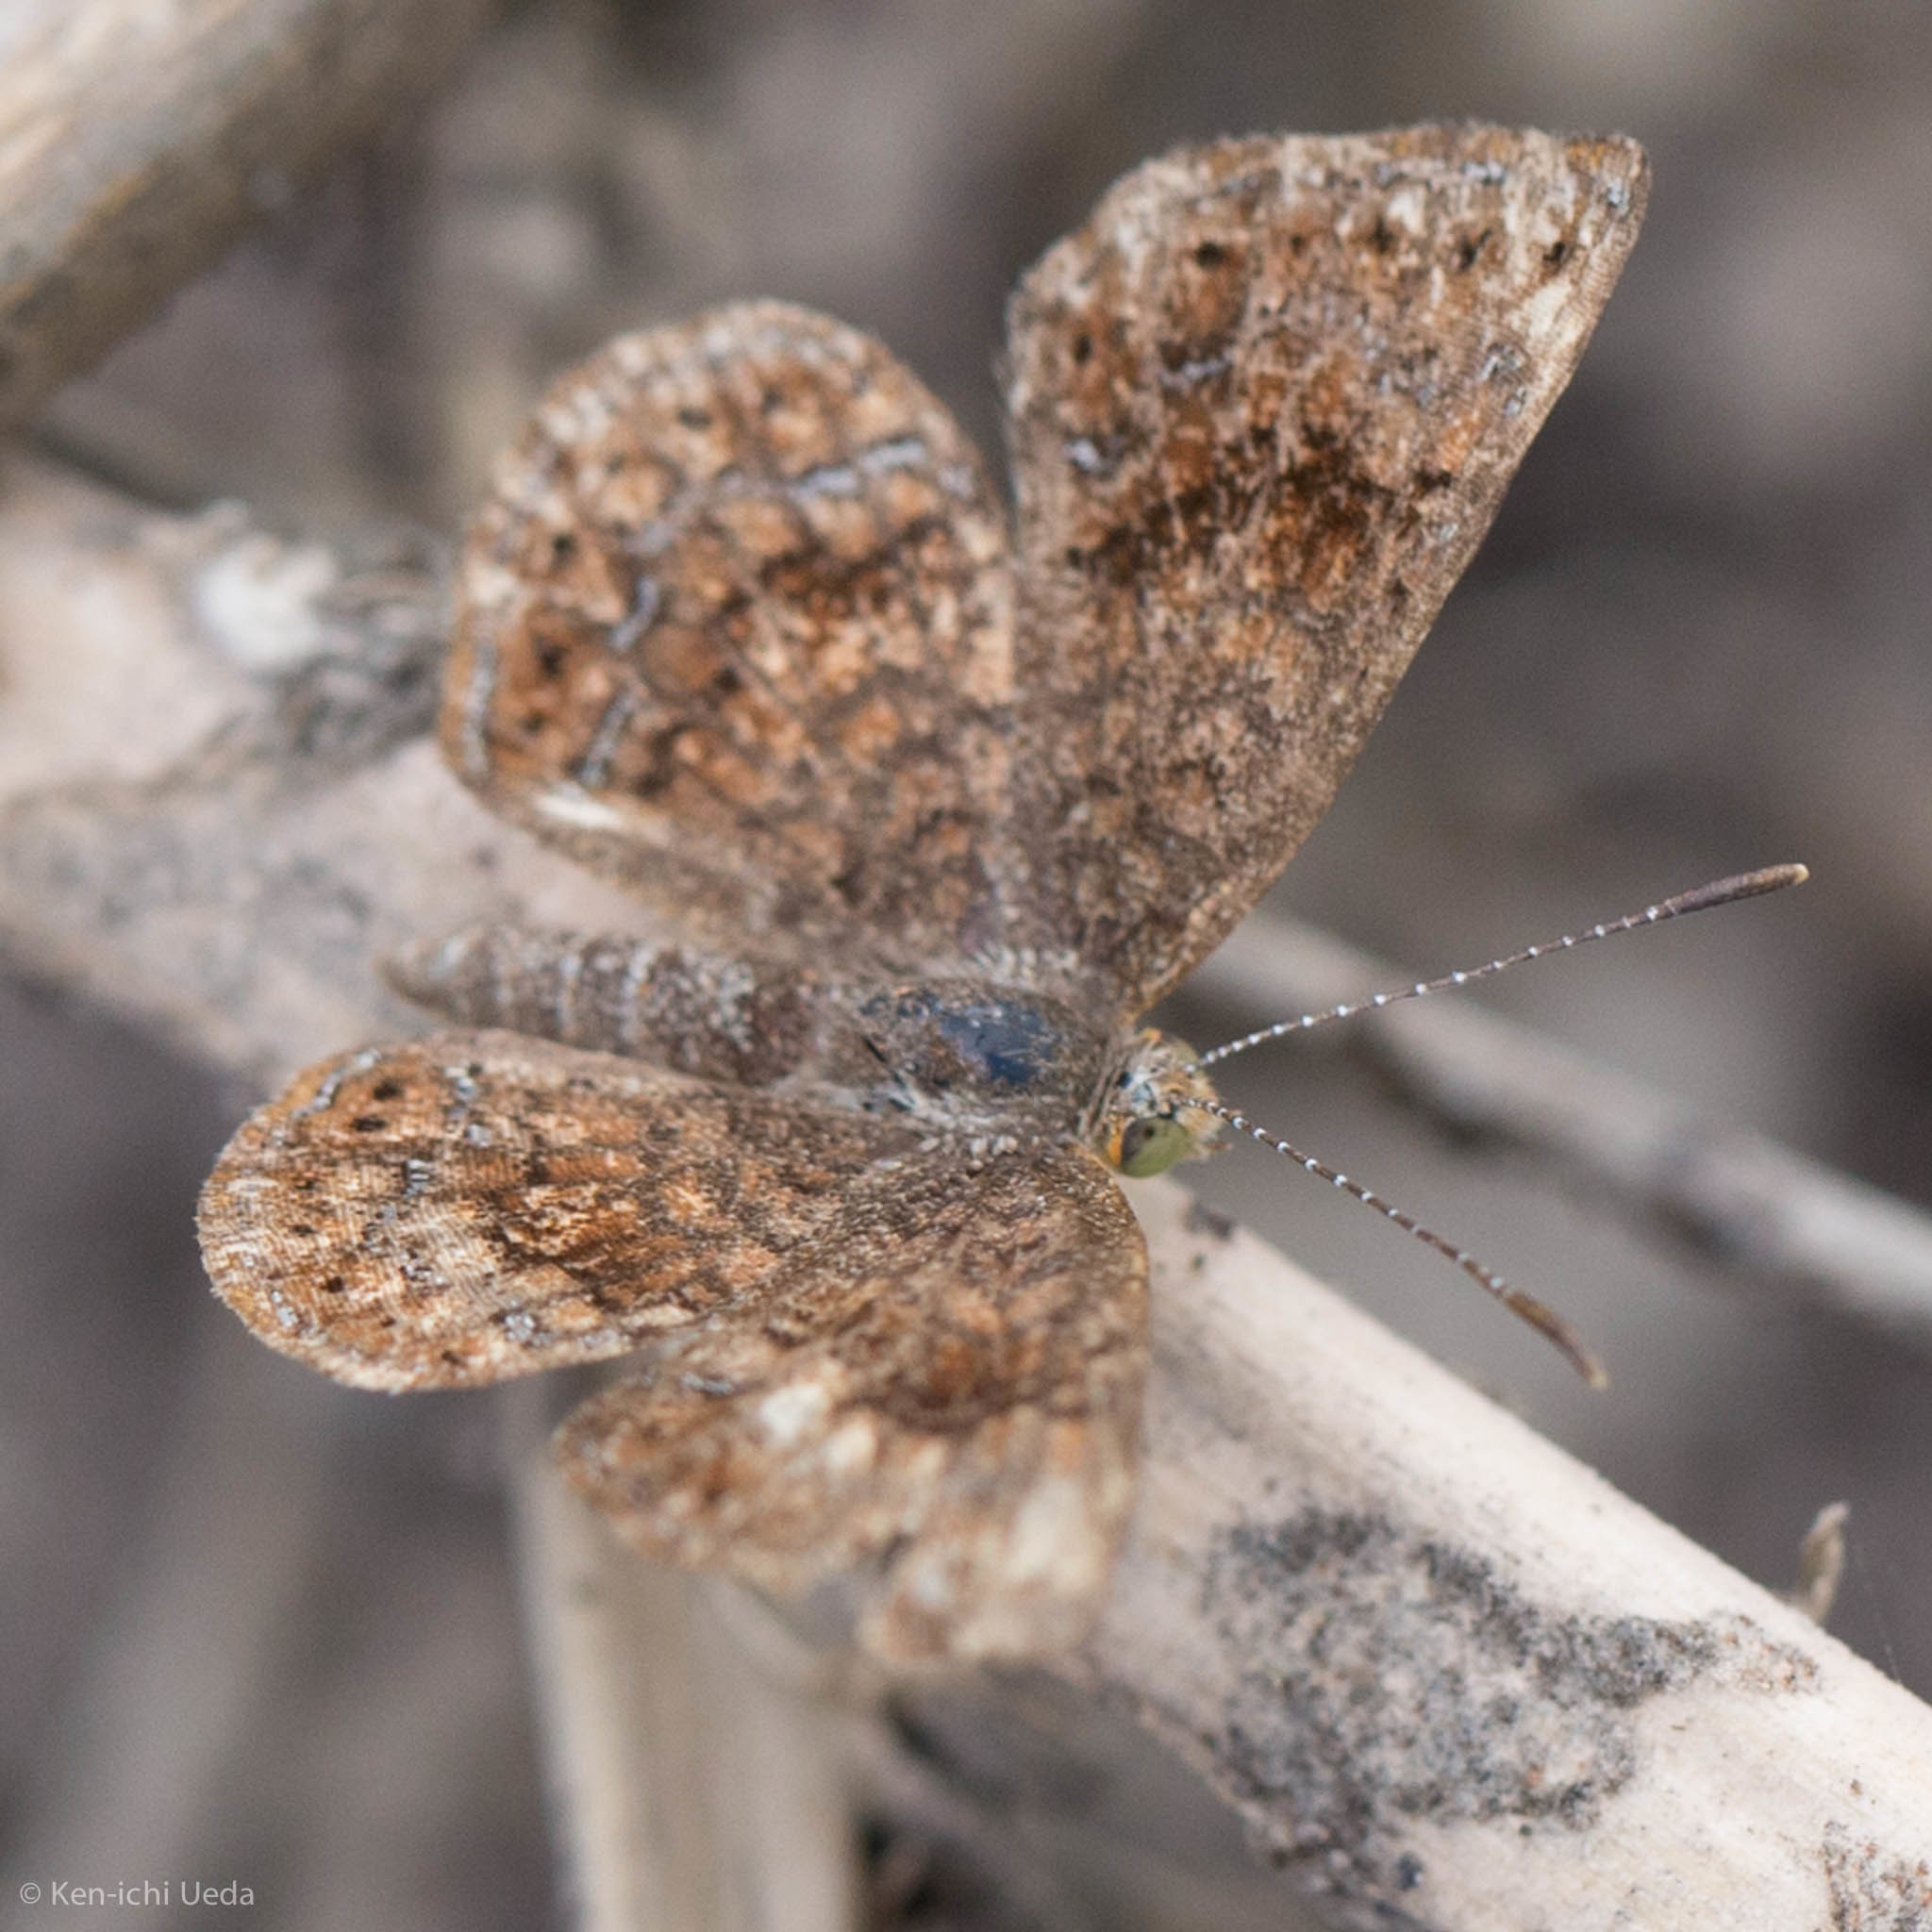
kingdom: Animalia
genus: Calephelis
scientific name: Calephelis nemesis
